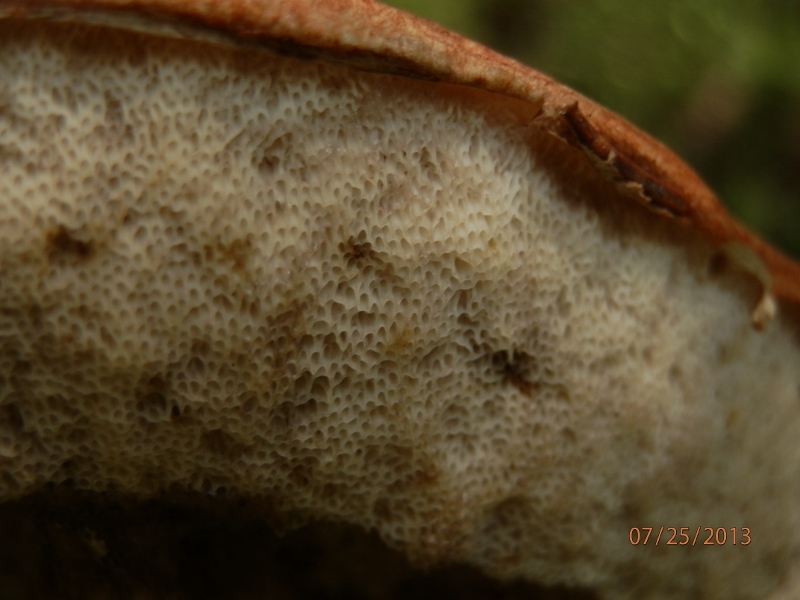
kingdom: Fungi
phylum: Basidiomycota
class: Agaricomycetes
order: Boletales
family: Boletaceae
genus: Leccinum
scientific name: Leccinum piceinum
